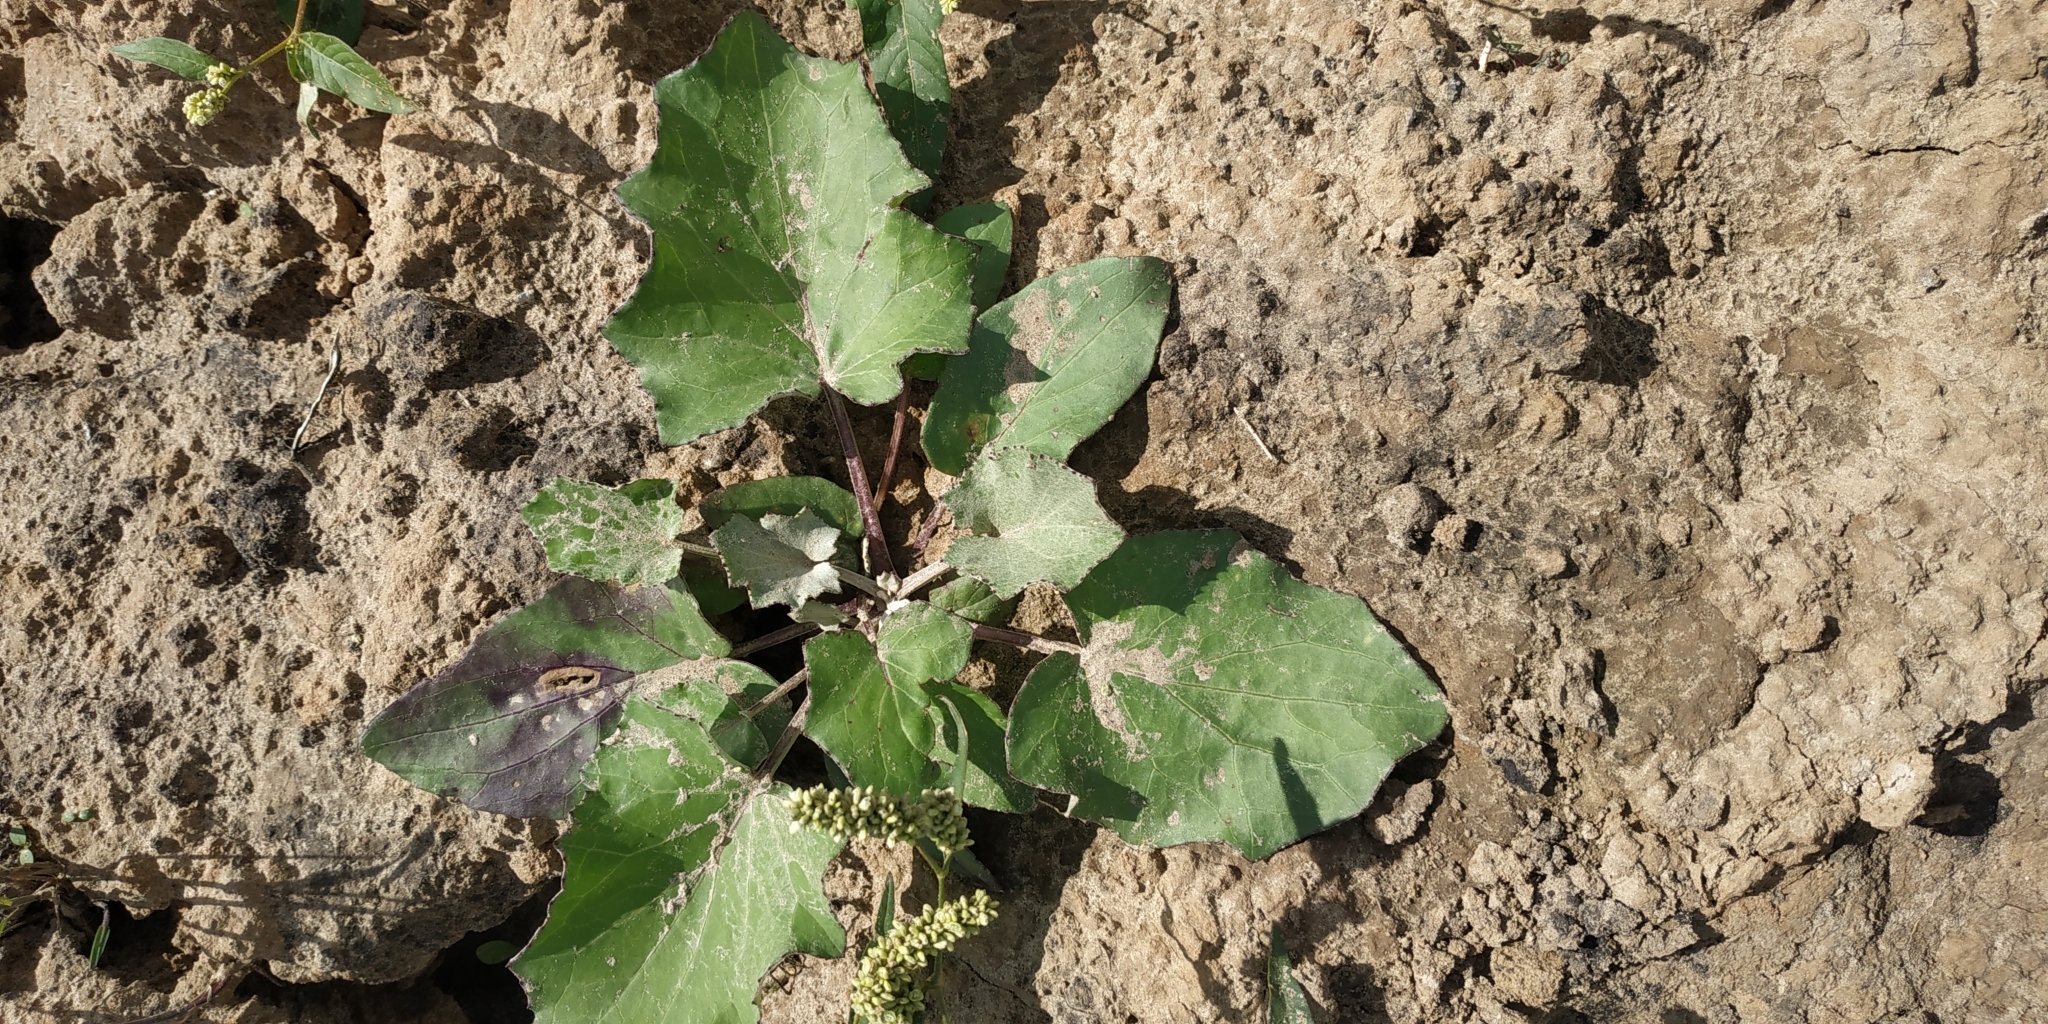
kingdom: Plantae
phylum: Tracheophyta
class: Magnoliopsida
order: Asterales
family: Asteraceae
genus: Tussilago
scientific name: Tussilago farfara
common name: Coltsfoot
